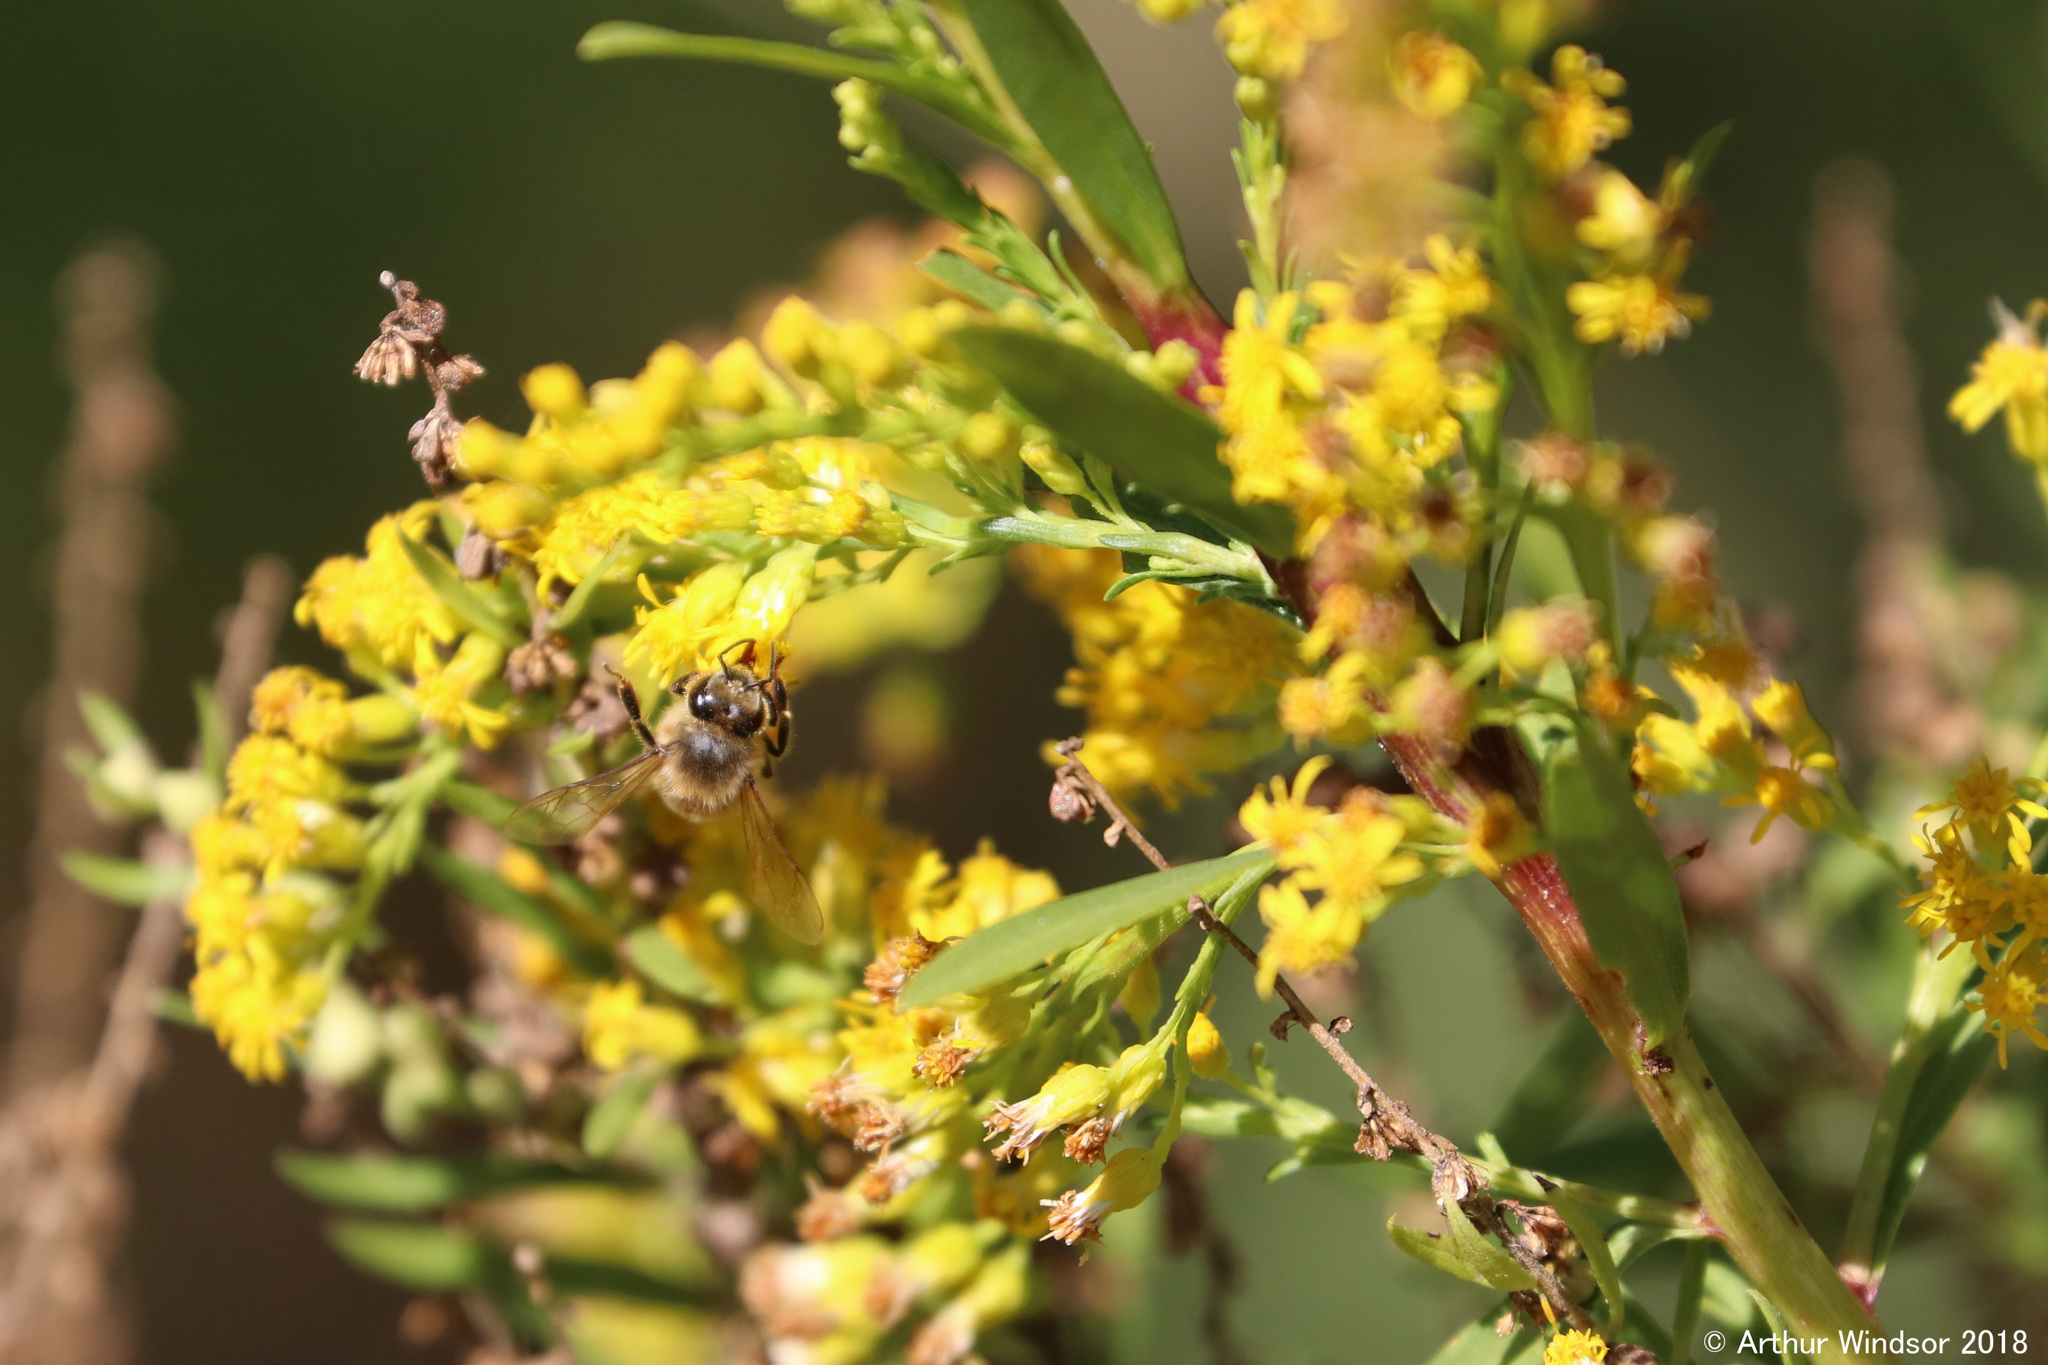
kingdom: Animalia
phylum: Arthropoda
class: Insecta
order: Hymenoptera
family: Apidae
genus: Apis
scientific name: Apis mellifera
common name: Honey bee
